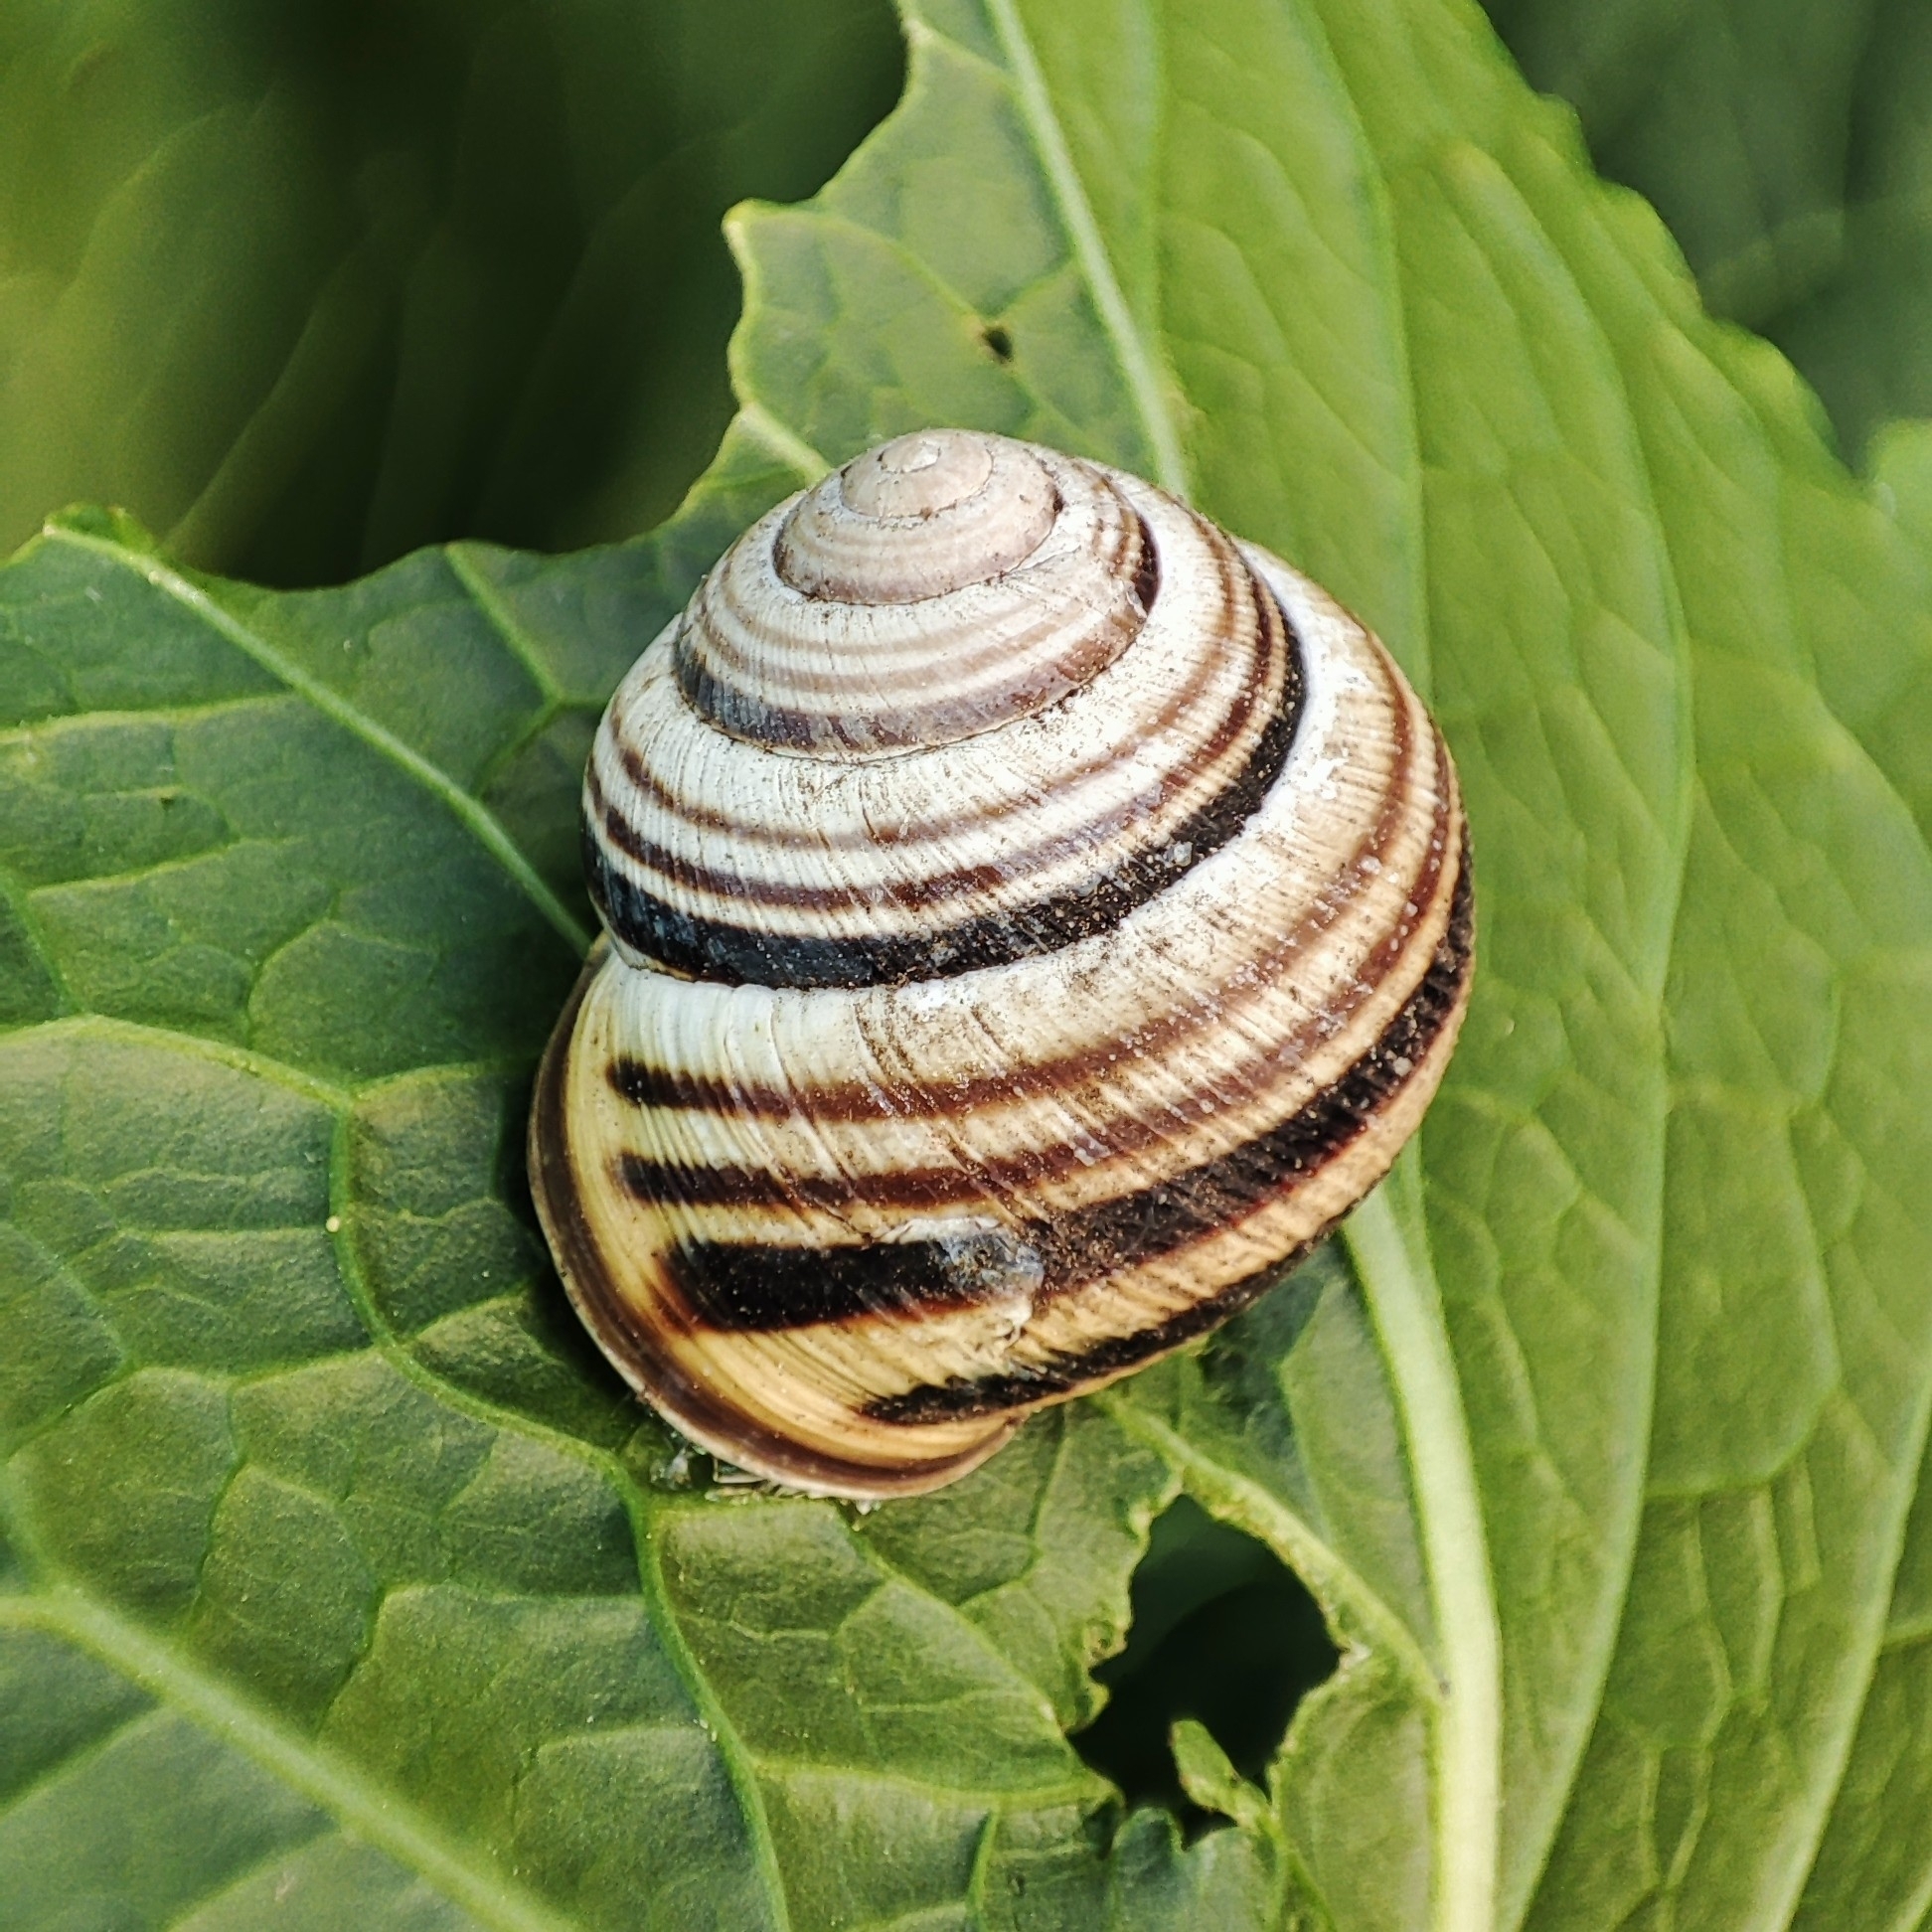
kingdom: Animalia
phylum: Mollusca
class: Gastropoda
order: Stylommatophora
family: Helicidae
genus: Caucasotachea
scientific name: Caucasotachea vindobonensis
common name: European helicid land snail
